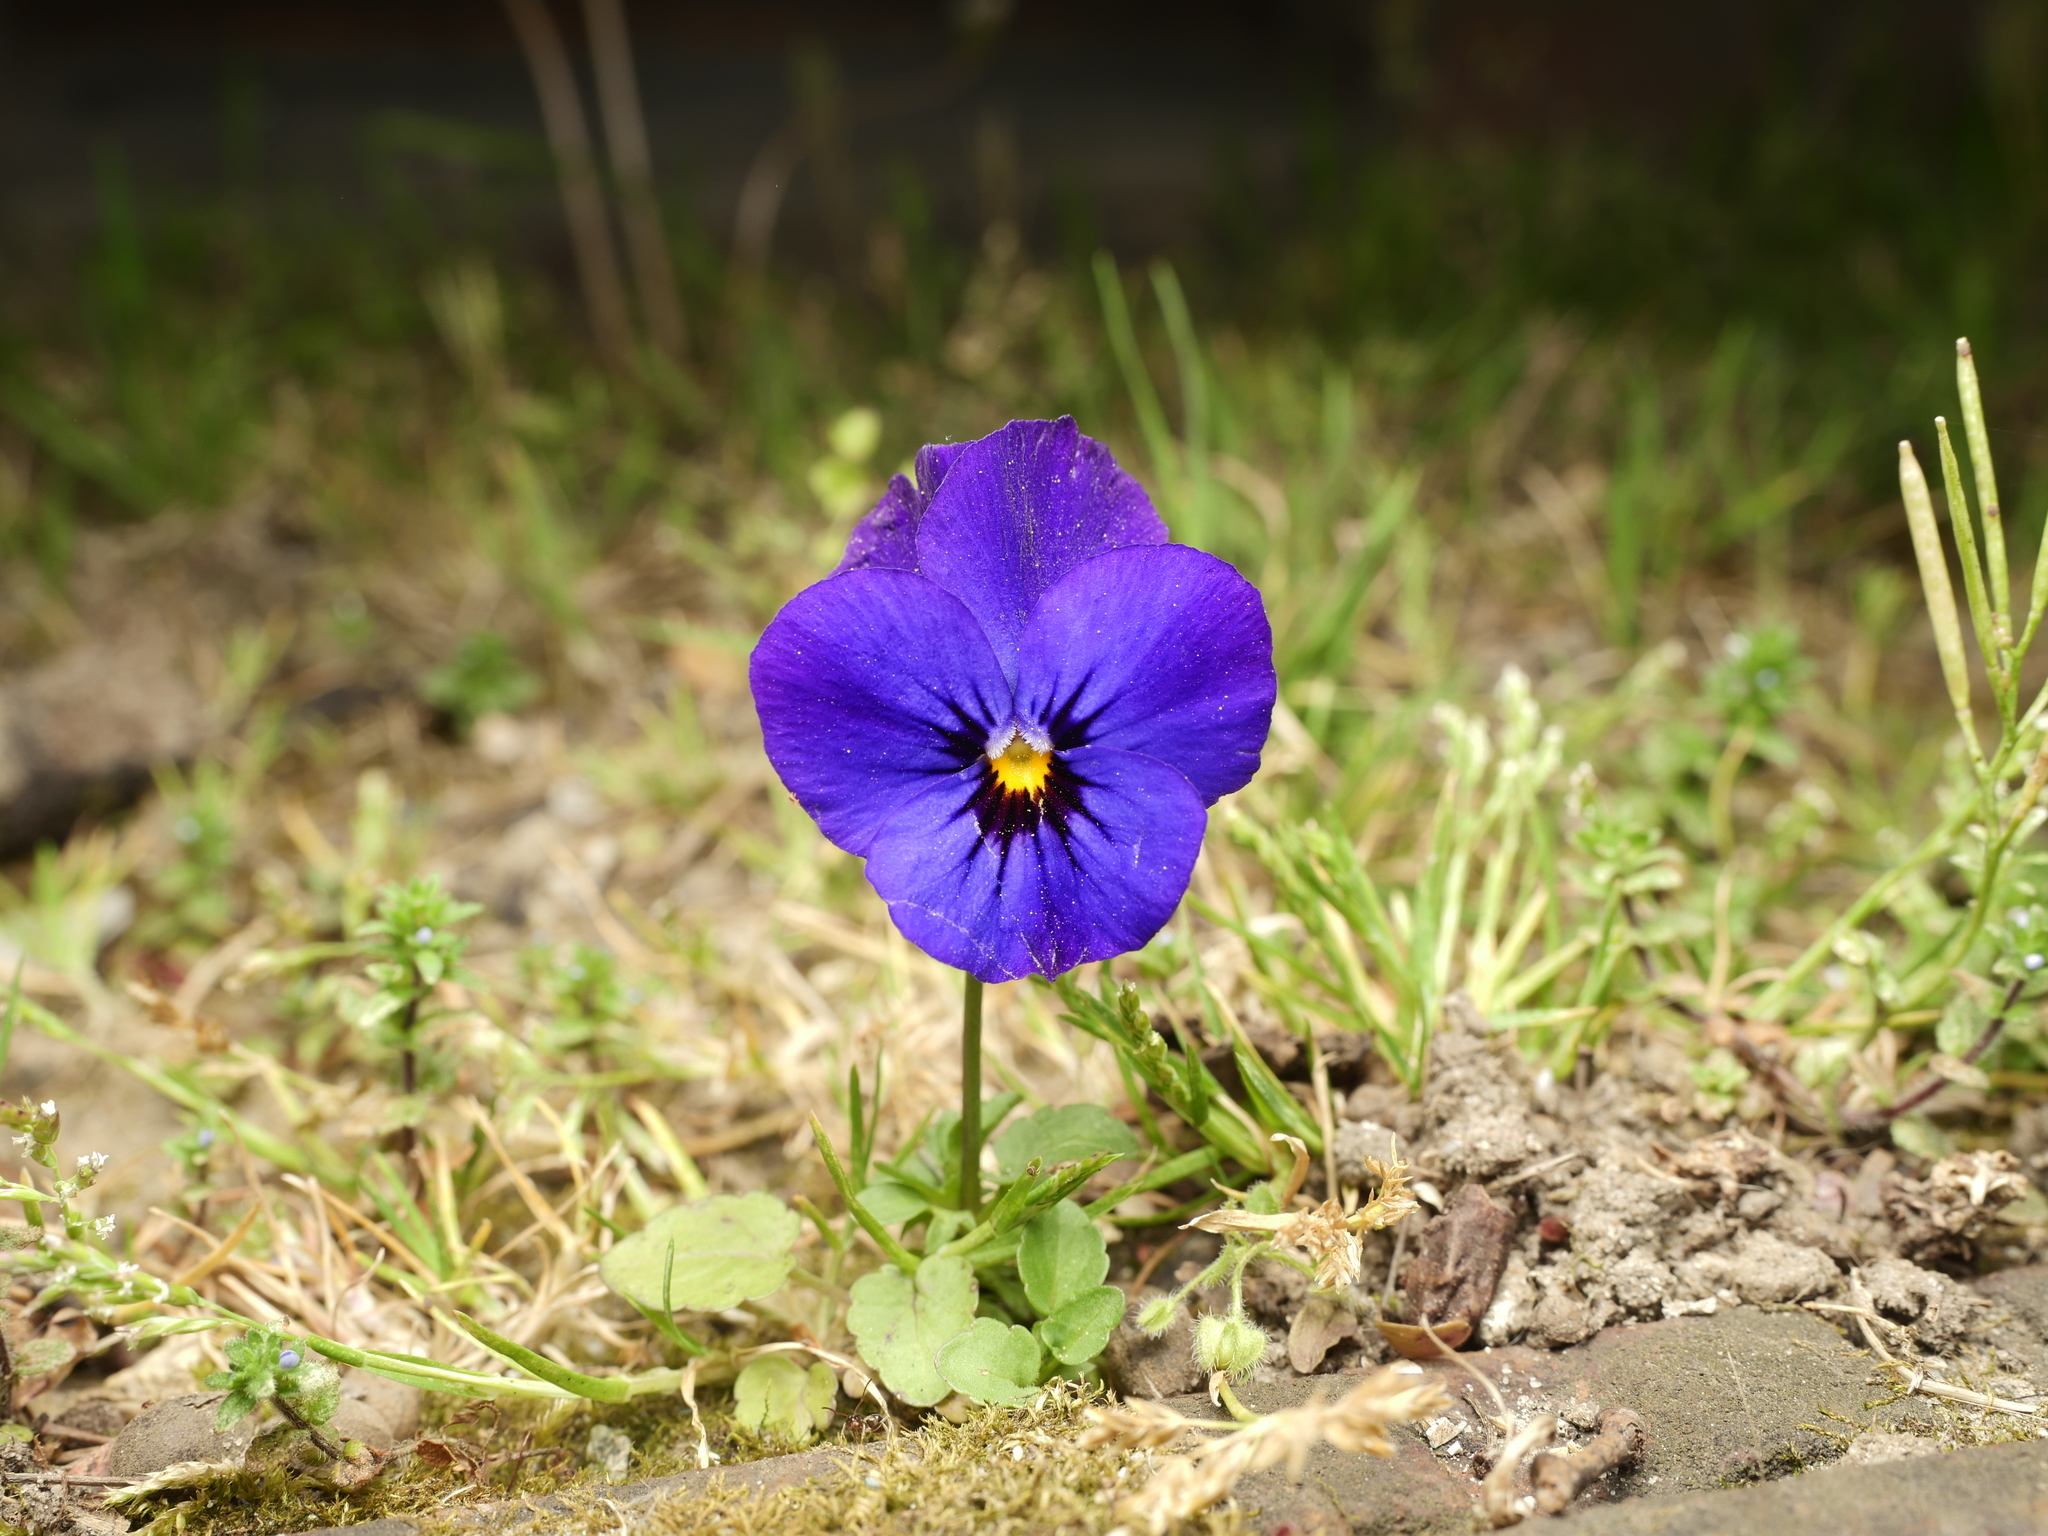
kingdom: Plantae
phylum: Tracheophyta
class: Magnoliopsida
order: Malpighiales
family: Violaceae
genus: Viola
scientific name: Viola wittrockiana
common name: Garden pansy
